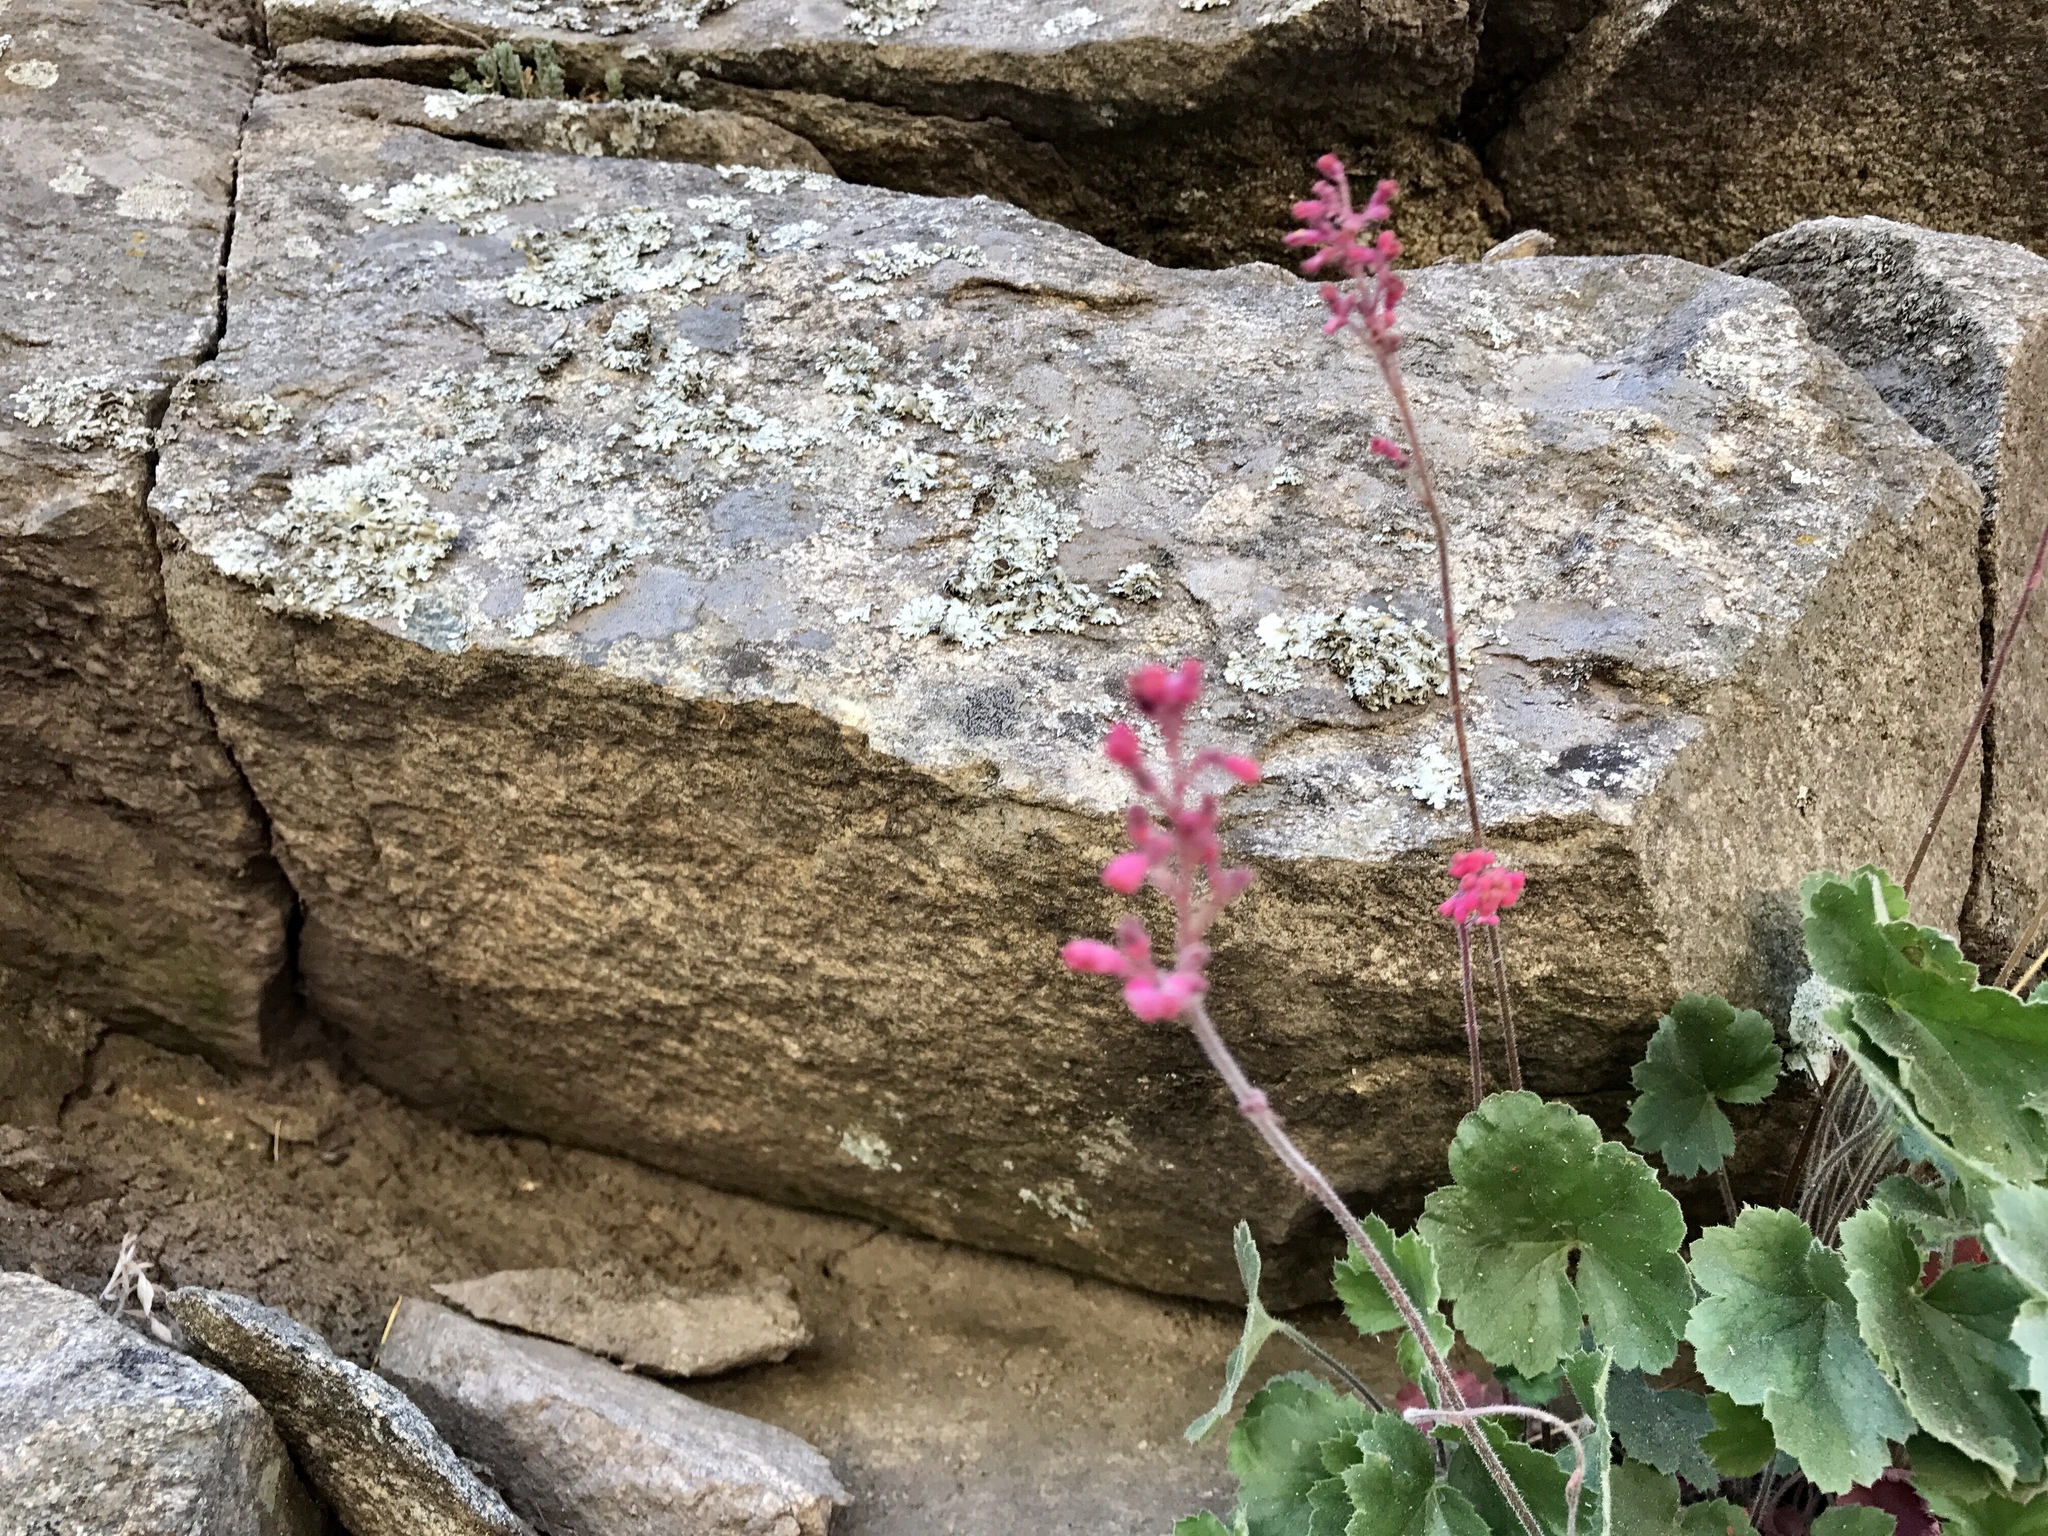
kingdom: Plantae
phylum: Tracheophyta
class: Magnoliopsida
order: Saxifragales
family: Saxifragaceae
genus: Heuchera
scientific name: Heuchera sanguinea
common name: Coralbells
